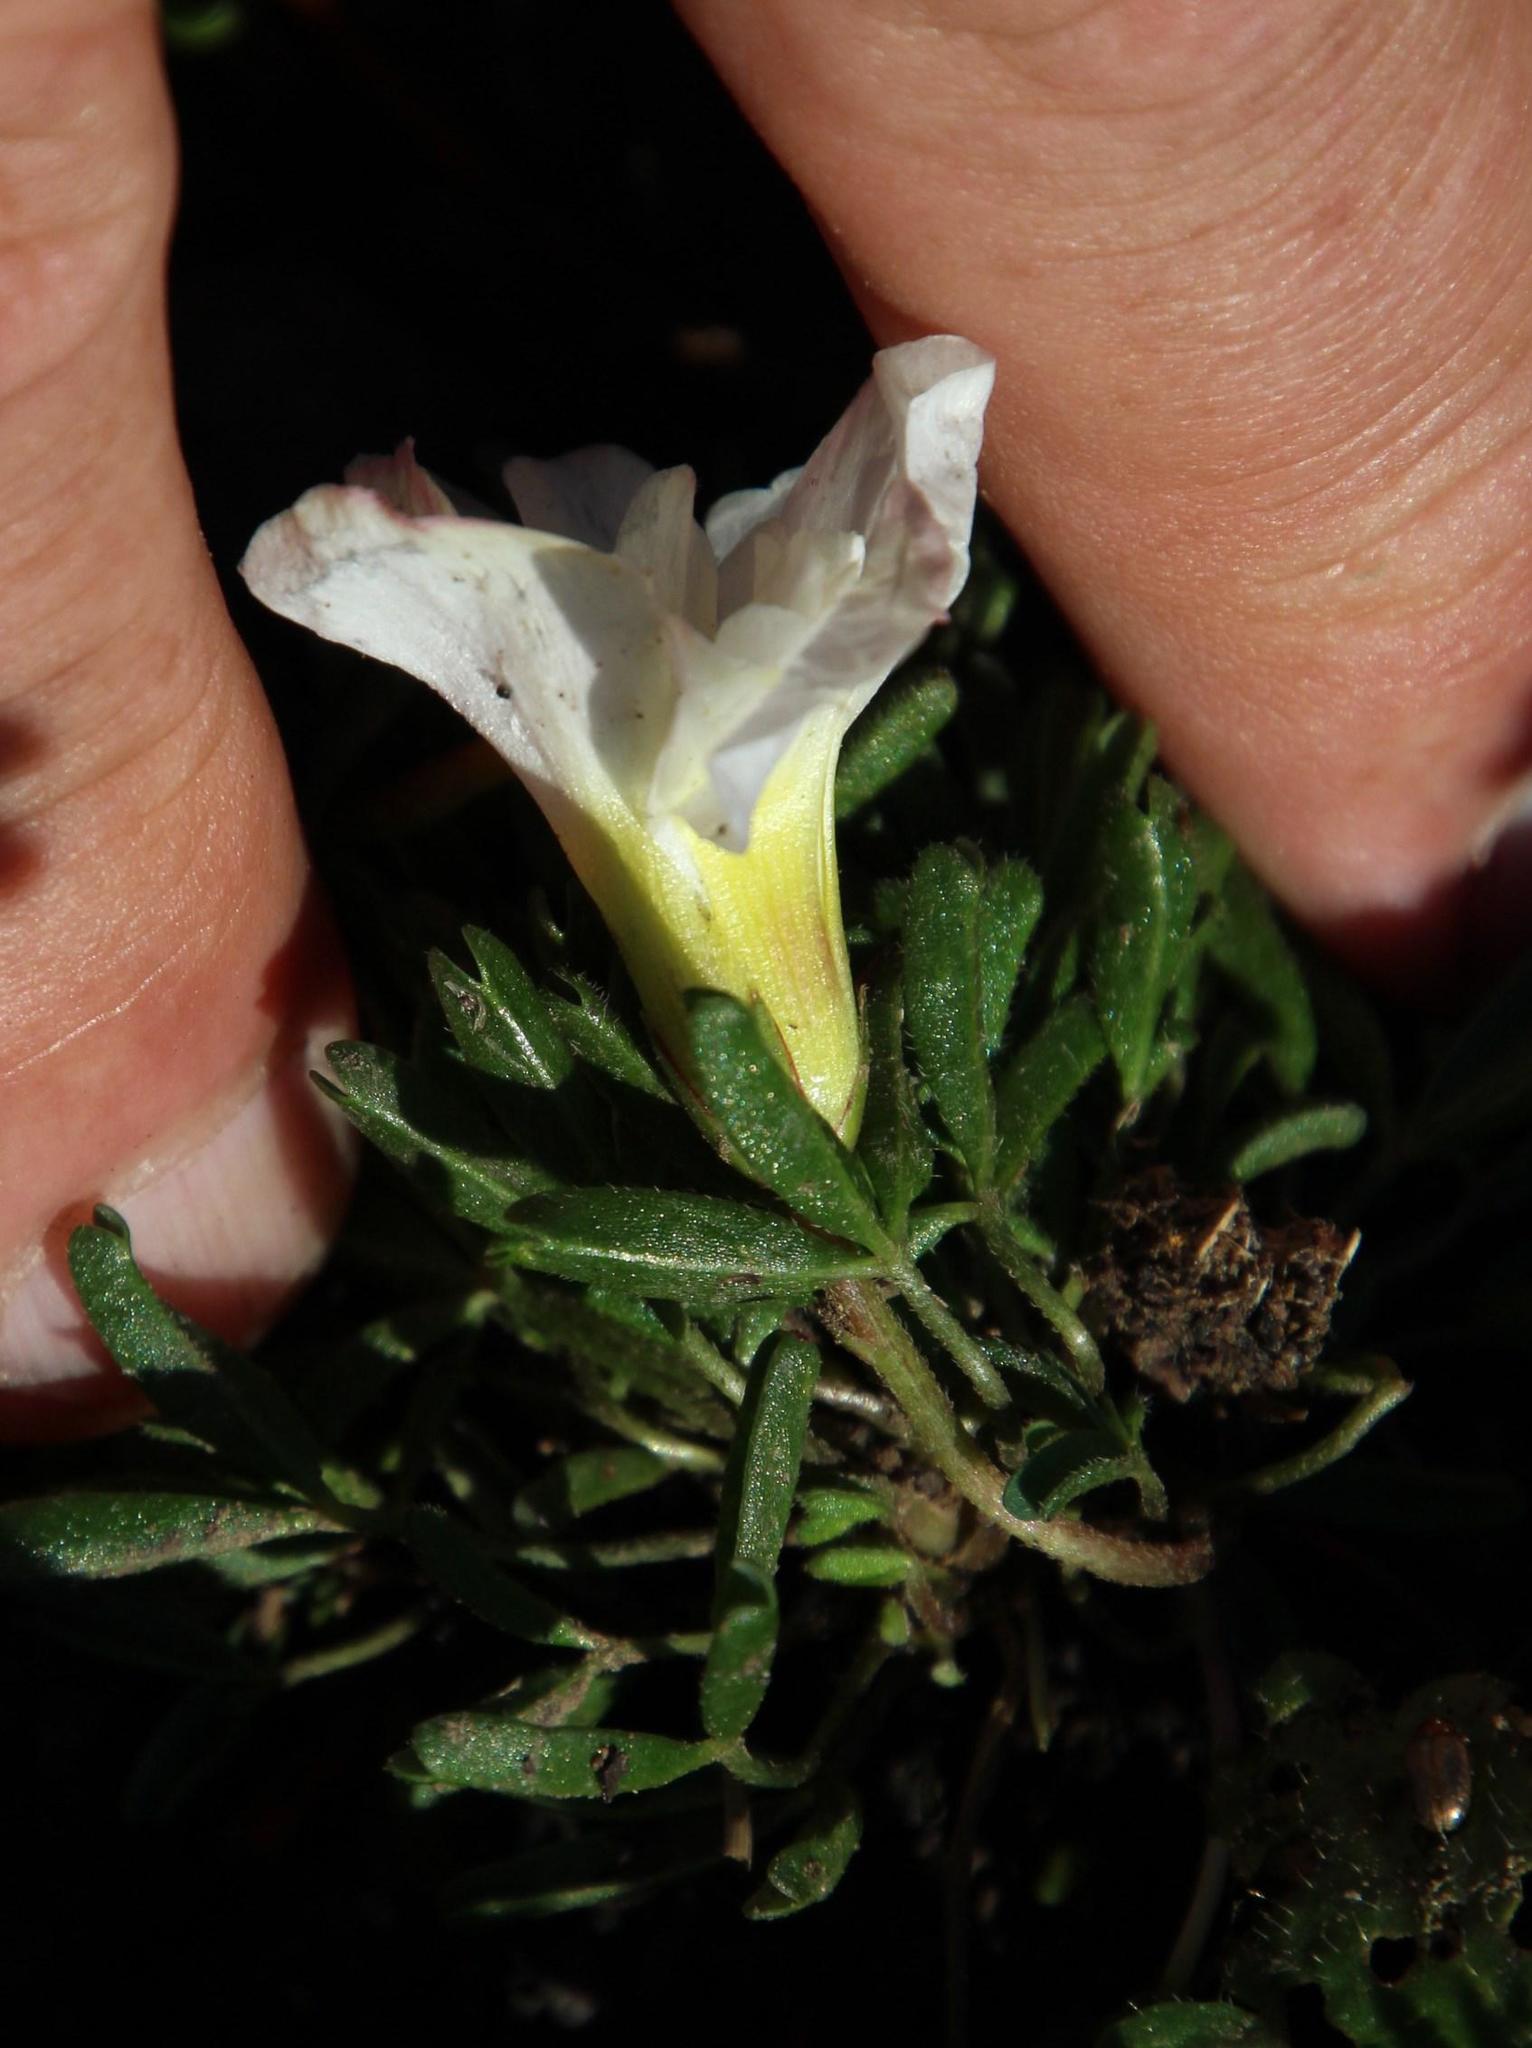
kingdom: Plantae
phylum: Tracheophyta
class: Magnoliopsida
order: Oxalidales
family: Oxalidaceae
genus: Oxalis
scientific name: Oxalis glabra
